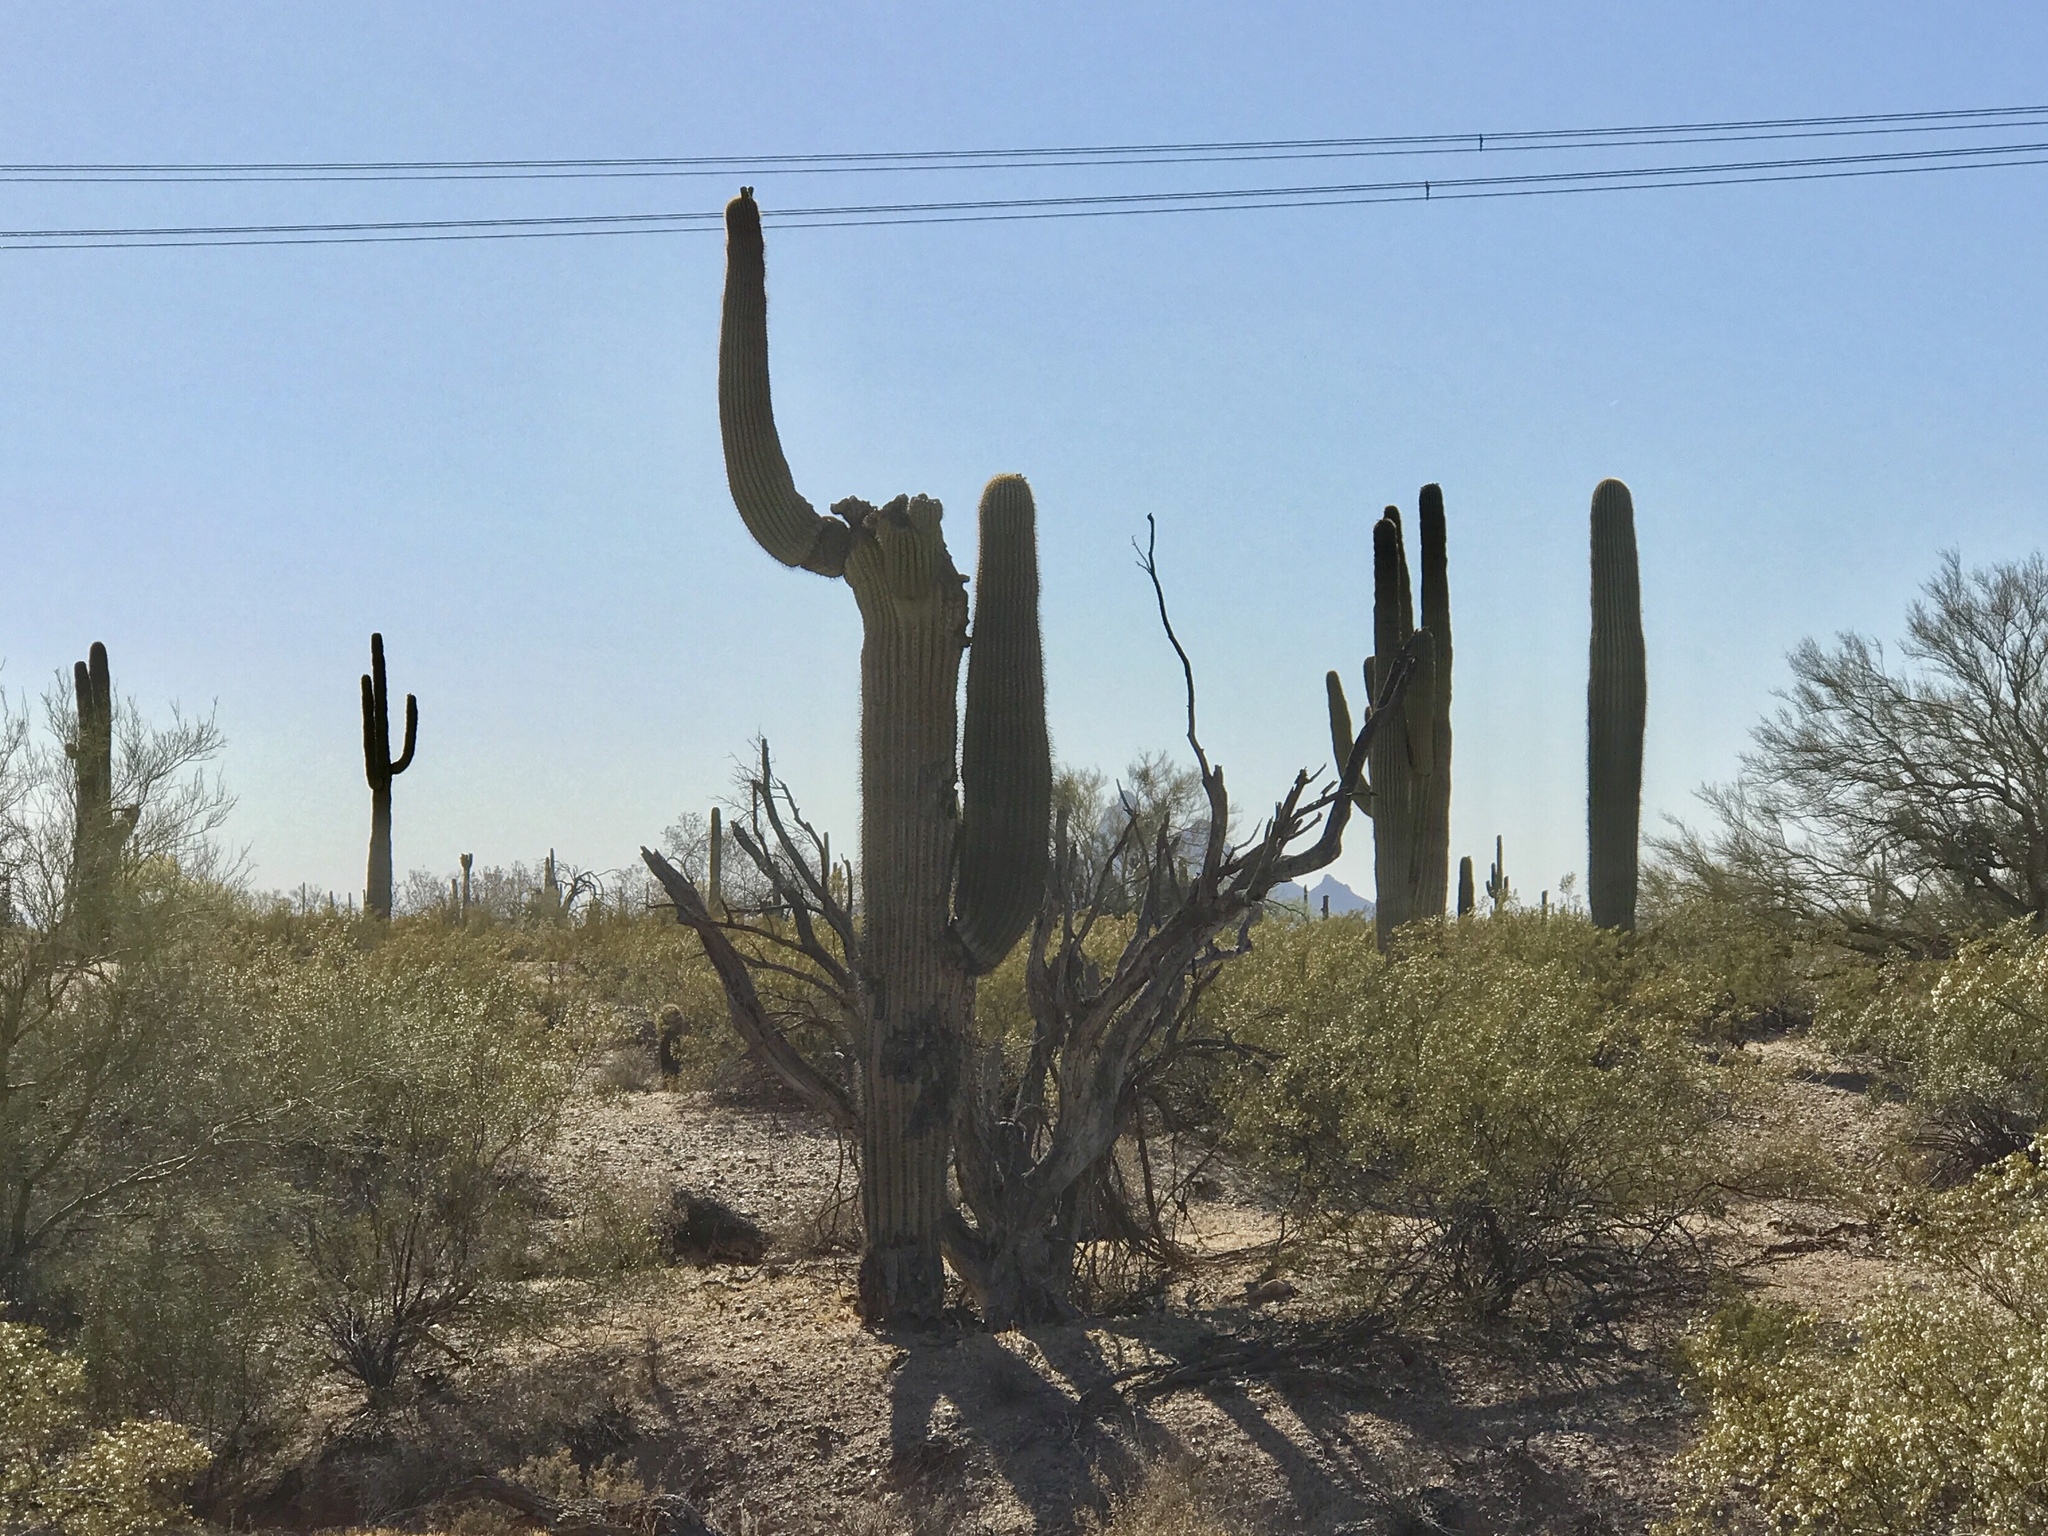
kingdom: Plantae
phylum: Tracheophyta
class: Magnoliopsida
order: Caryophyllales
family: Cactaceae
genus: Carnegiea
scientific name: Carnegiea gigantea
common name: Saguaro
